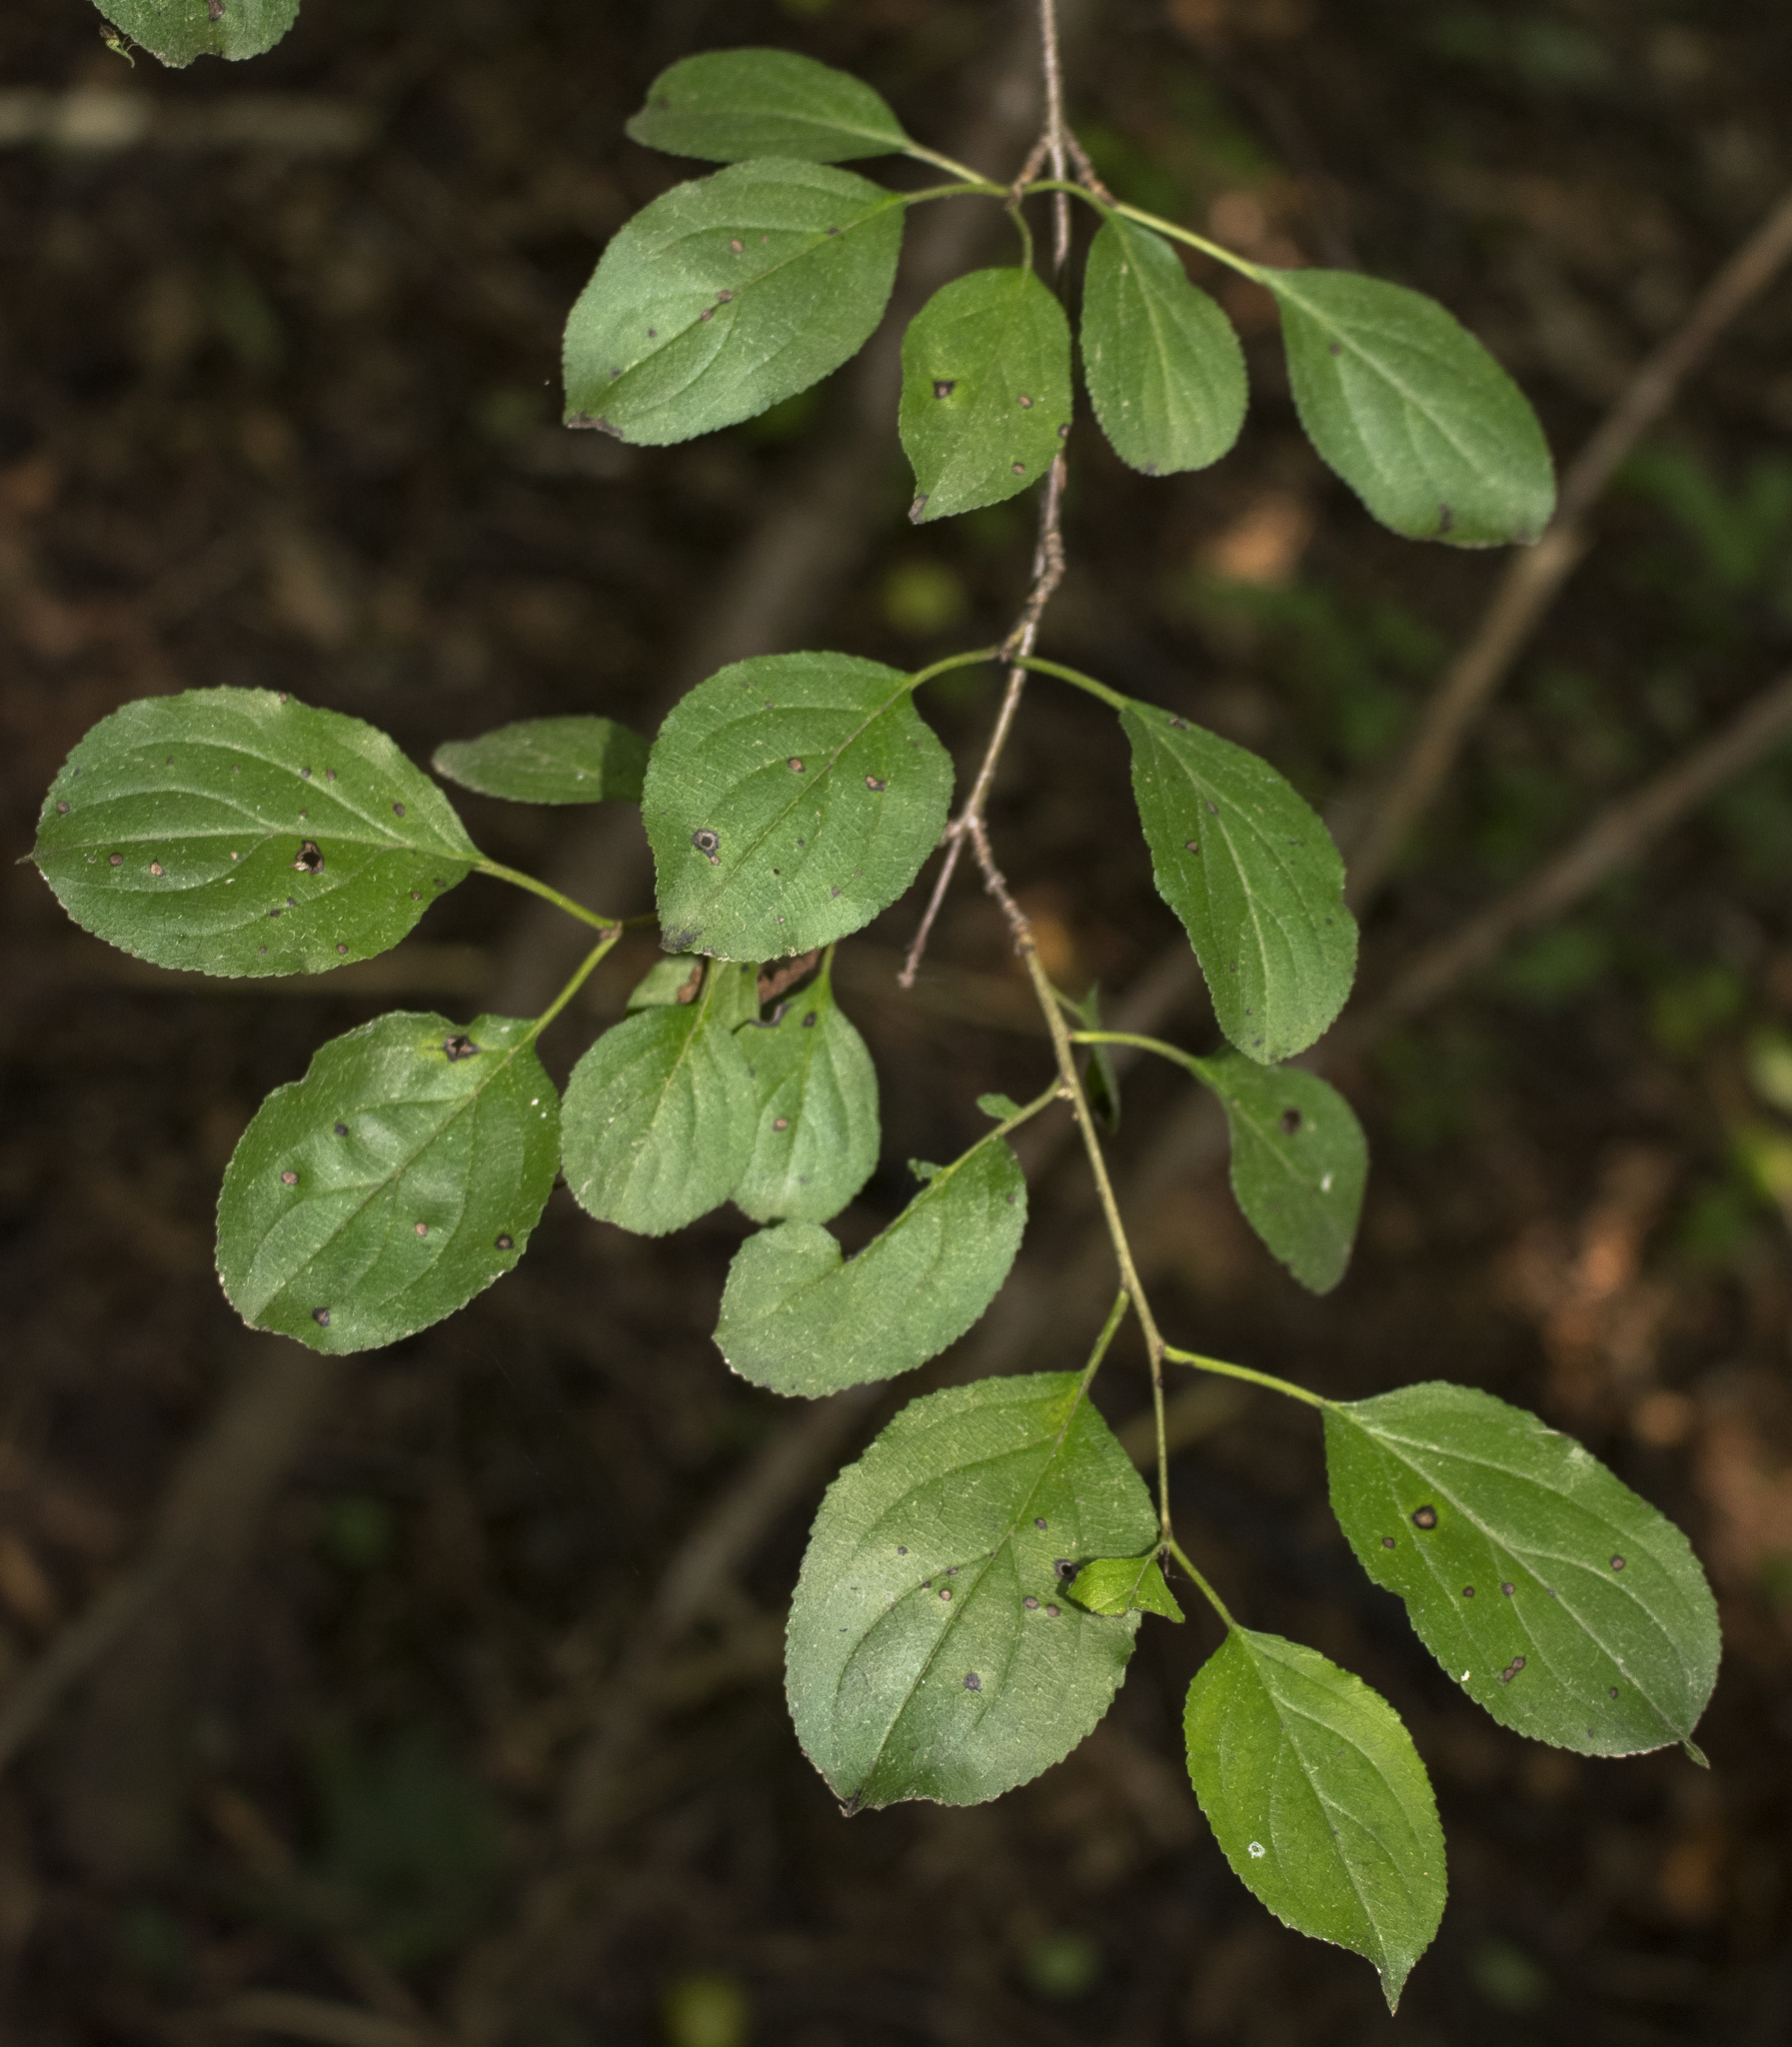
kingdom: Plantae
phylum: Tracheophyta
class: Magnoliopsida
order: Rosales
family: Rhamnaceae
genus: Rhamnus
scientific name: Rhamnus cathartica
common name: Common buckthorn
